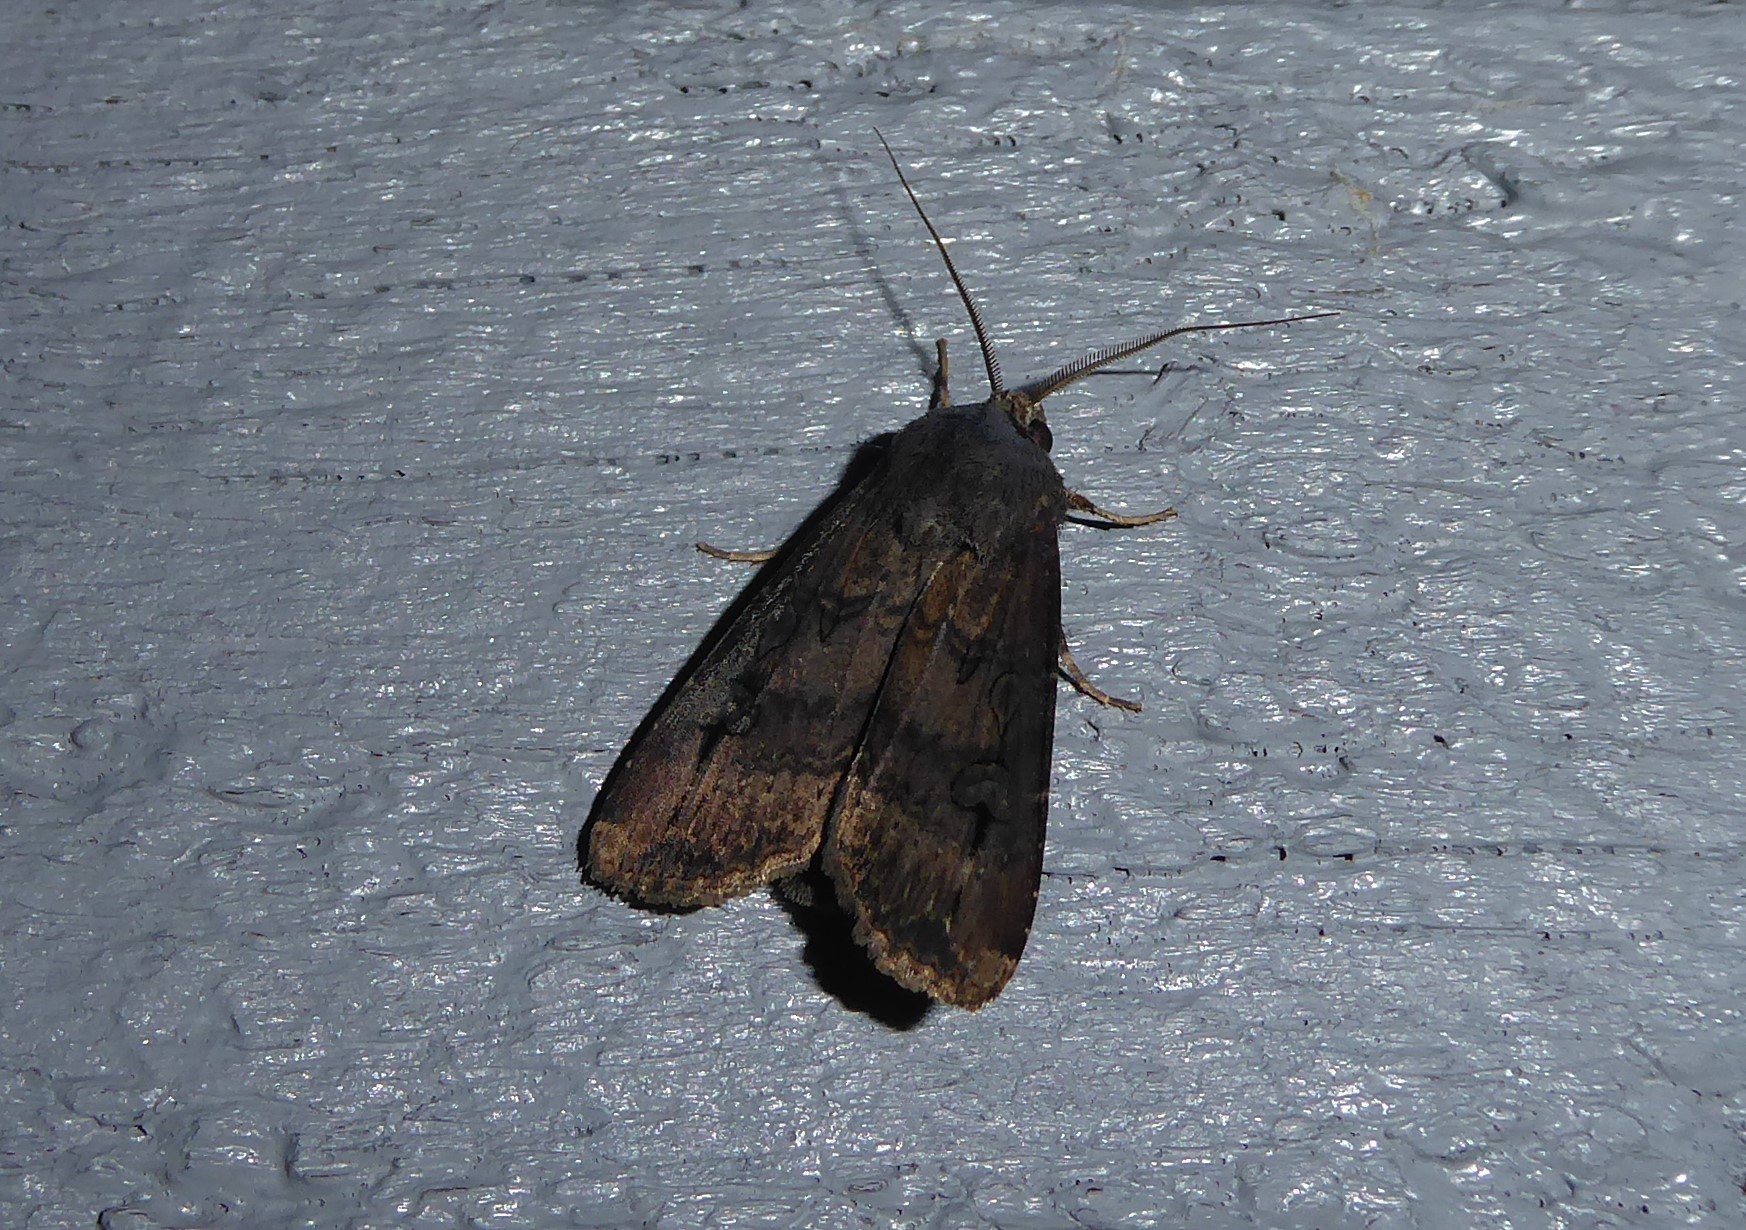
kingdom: Animalia
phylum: Arthropoda
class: Insecta
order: Lepidoptera
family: Noctuidae
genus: Agrotis
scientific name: Agrotis ipsilon
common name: Dark sword-grass
